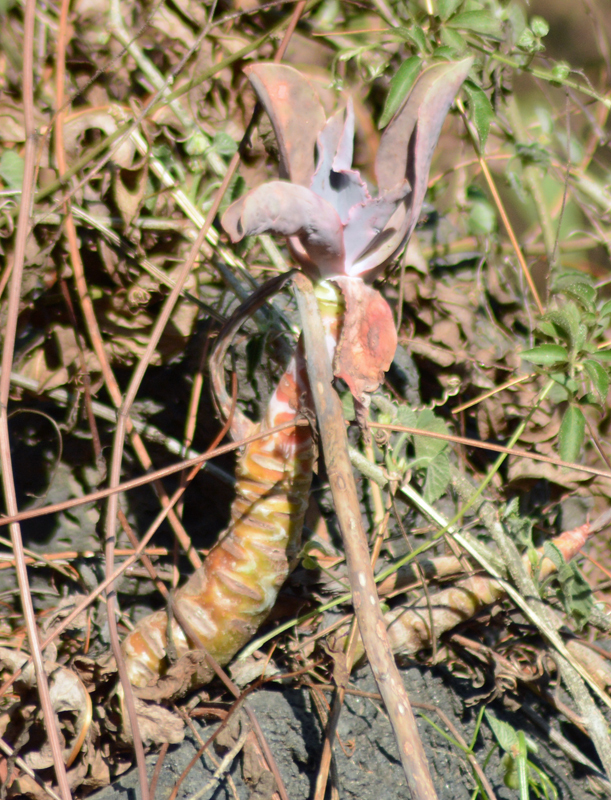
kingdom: Plantae
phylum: Tracheophyta
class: Magnoliopsida
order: Saxifragales
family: Crassulaceae
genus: Echeveria
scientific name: Echeveria gibbiflora
